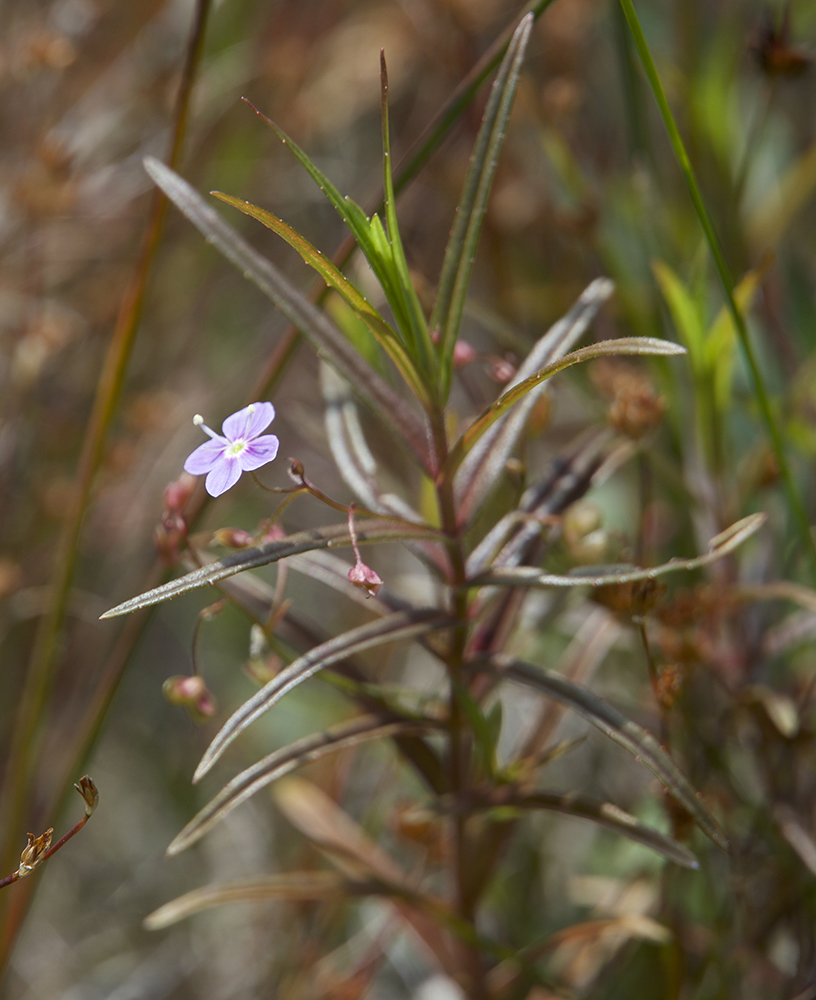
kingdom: Plantae
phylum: Tracheophyta
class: Magnoliopsida
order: Lamiales
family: Plantaginaceae
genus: Veronica
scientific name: Veronica scutellata
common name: Marsh speedwell
